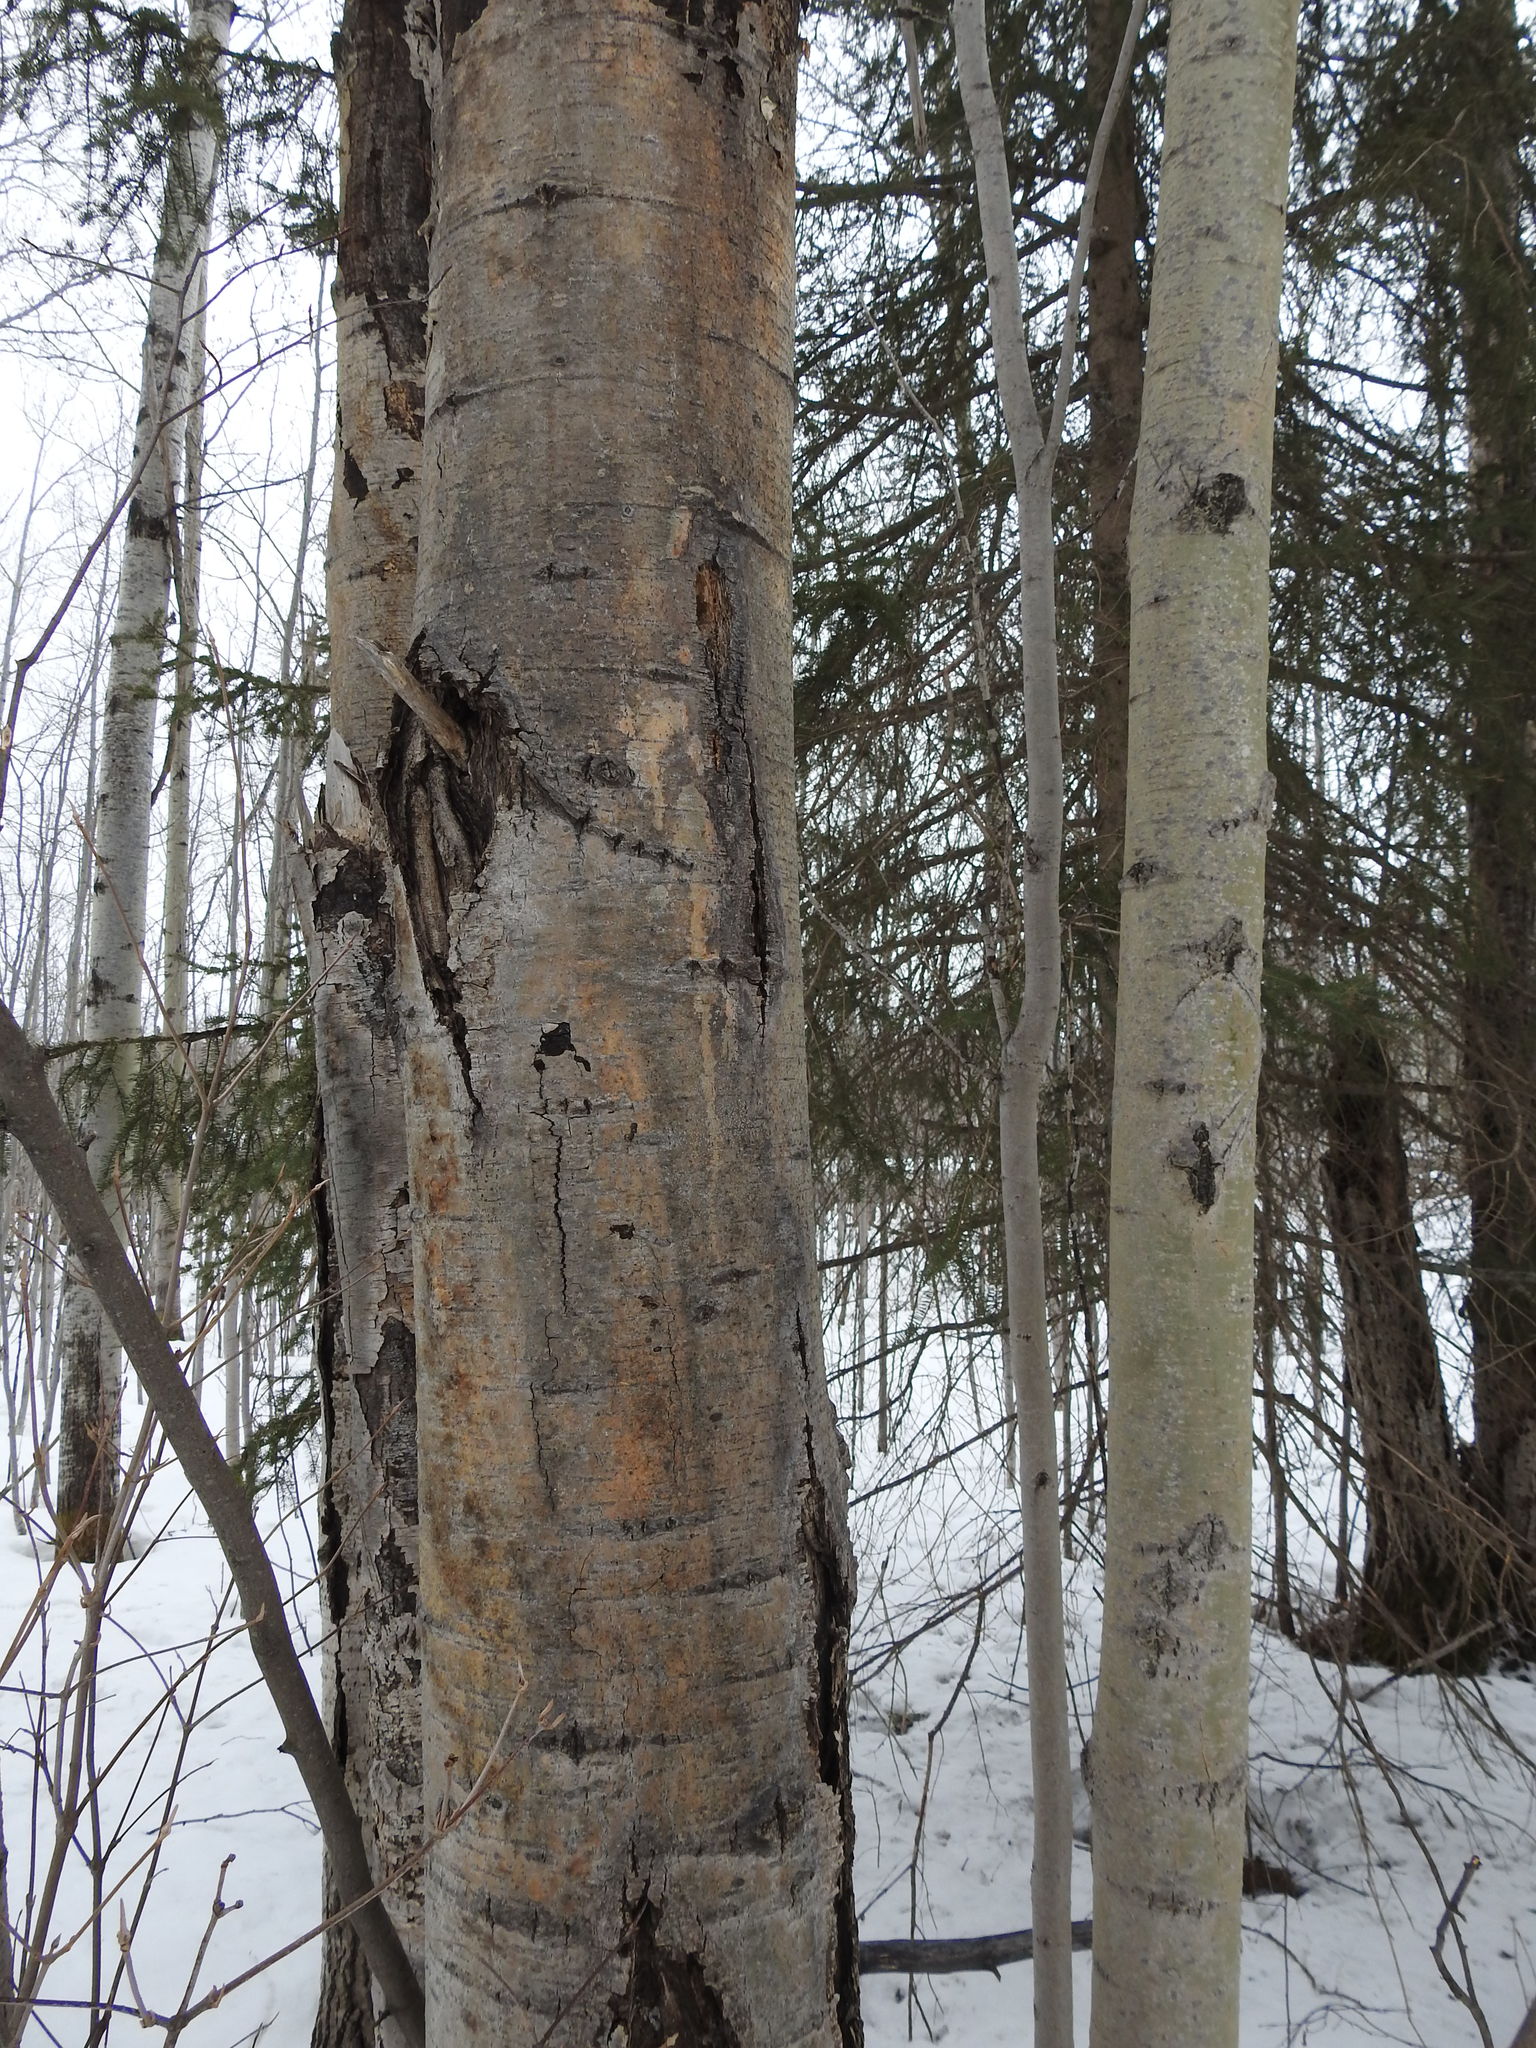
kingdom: Plantae
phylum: Tracheophyta
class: Magnoliopsida
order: Malpighiales
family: Salicaceae
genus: Populus
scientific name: Populus tremuloides
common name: Quaking aspen
